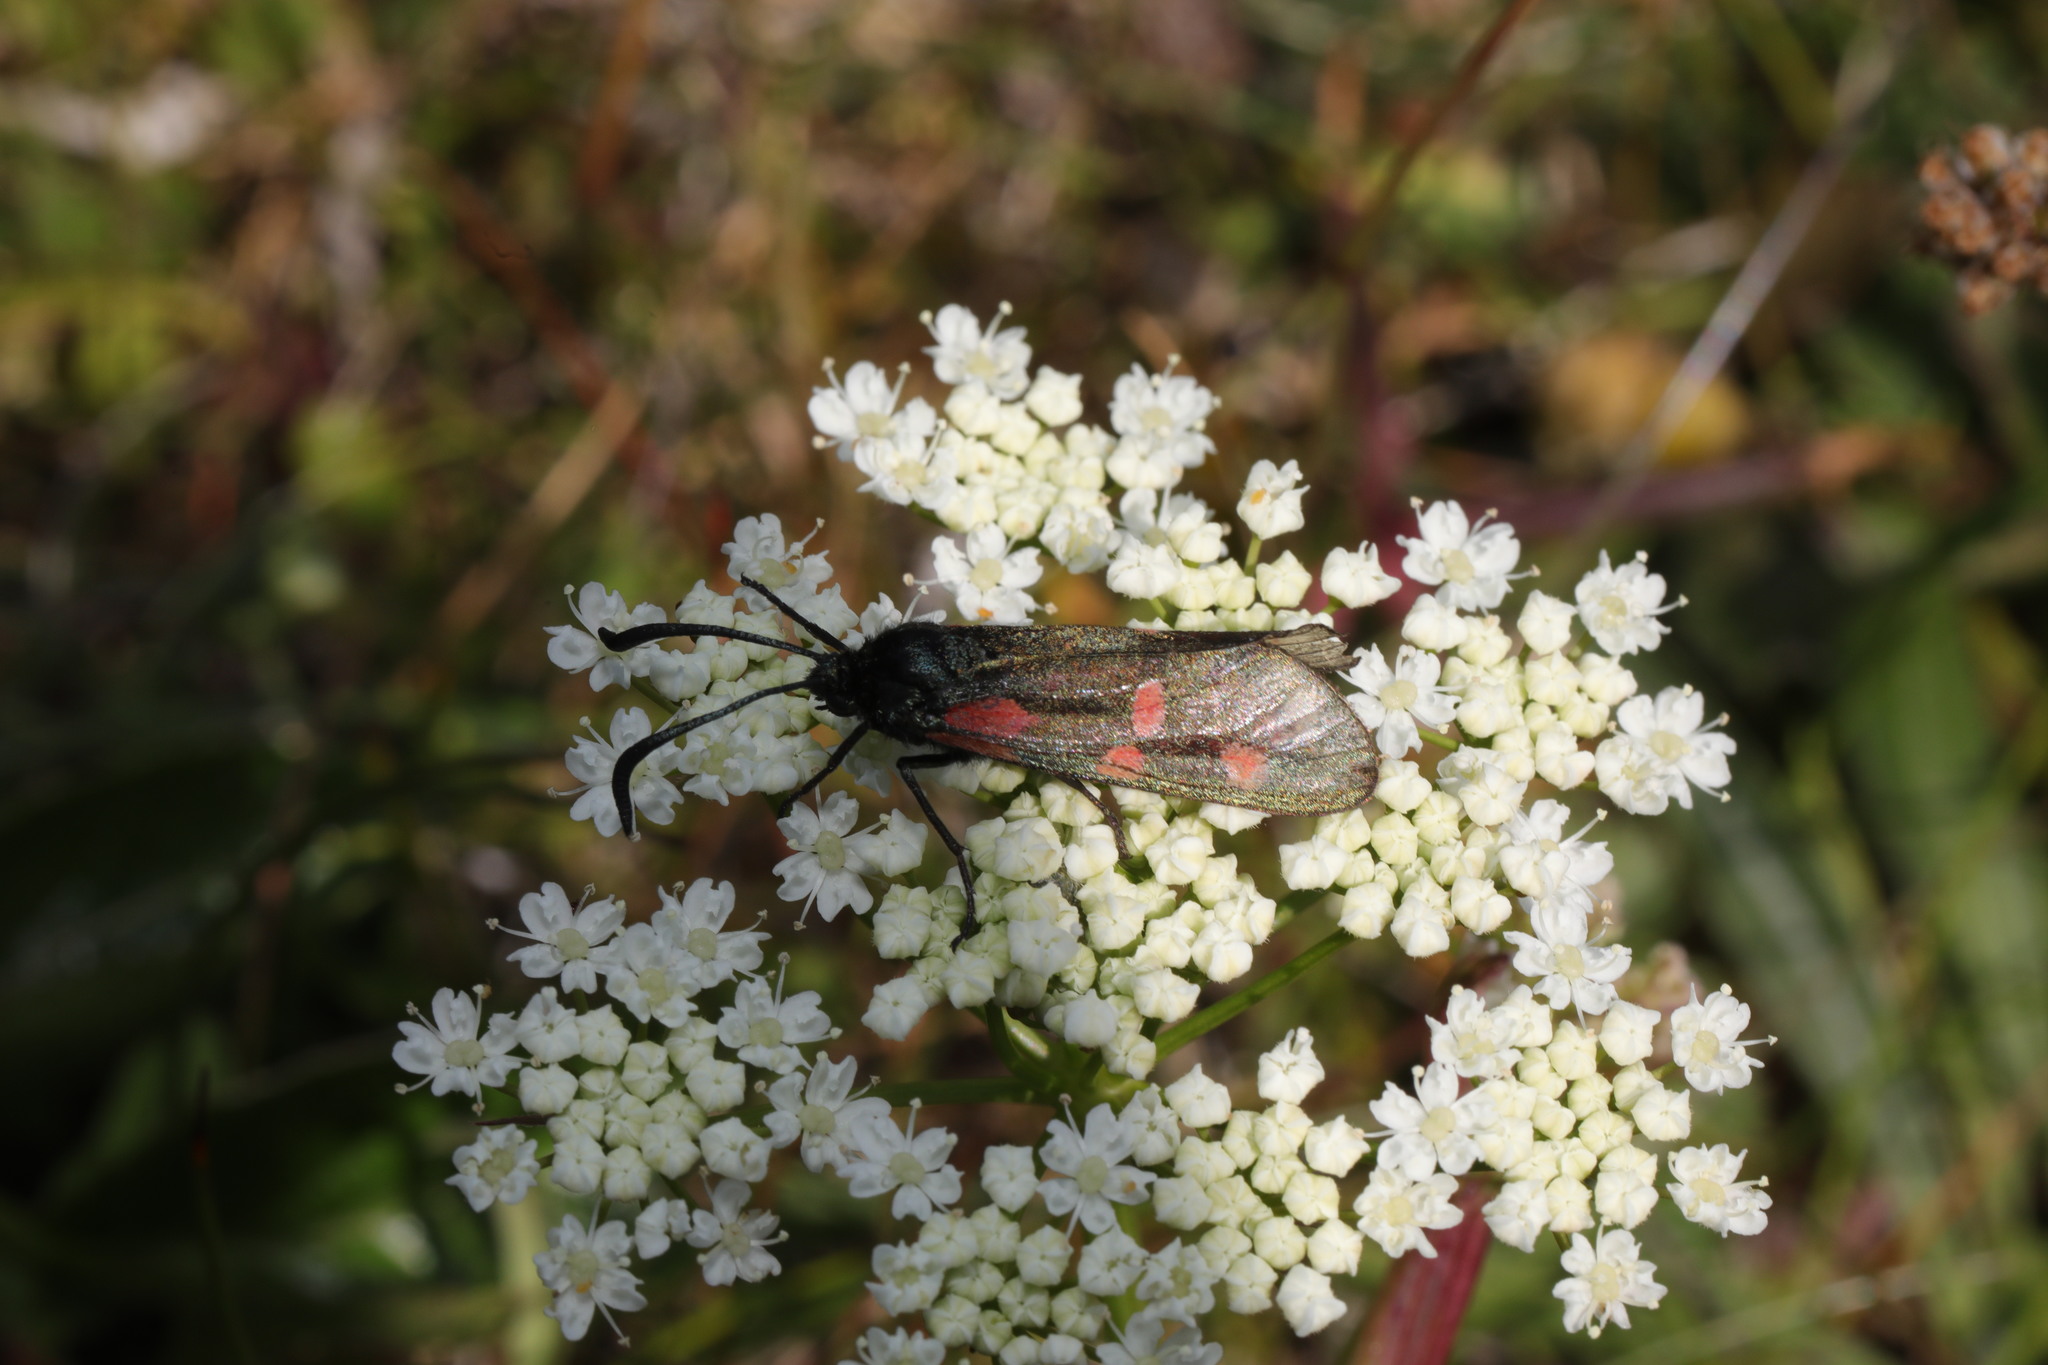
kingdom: Animalia
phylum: Arthropoda
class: Insecta
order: Lepidoptera
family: Zygaenidae
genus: Zygaena
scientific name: Zygaena lonicerae
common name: Narrow-bordered five-spot burnet
